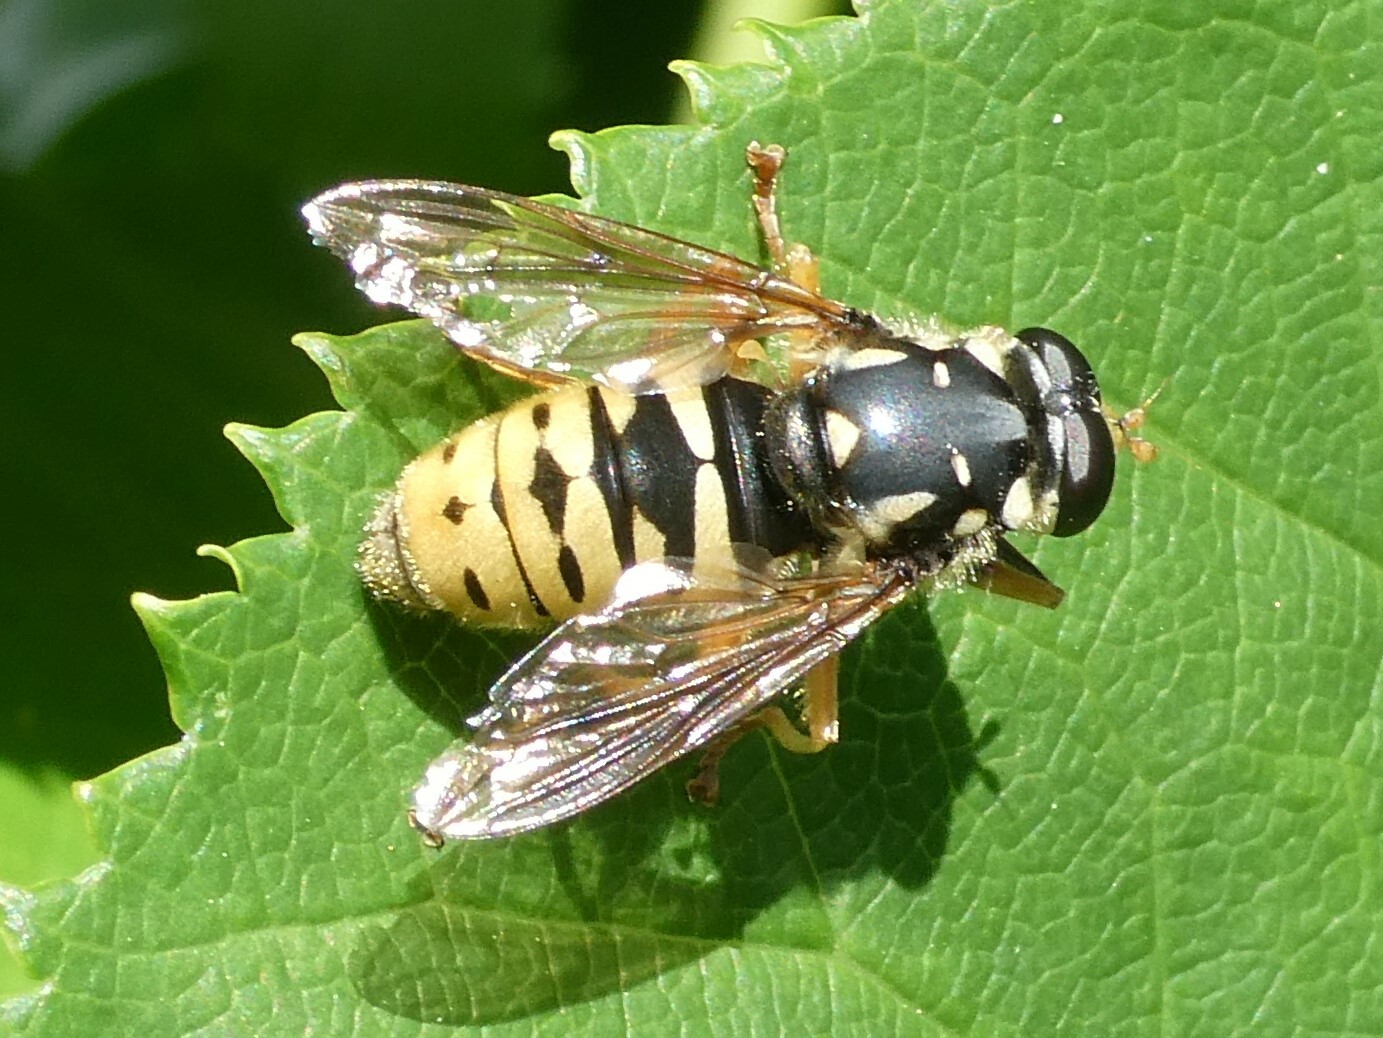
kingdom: Animalia
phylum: Arthropoda
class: Insecta
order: Diptera
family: Syrphidae
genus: Temnostoma
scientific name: Temnostoma alternans
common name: Wasp-like falsehorn
